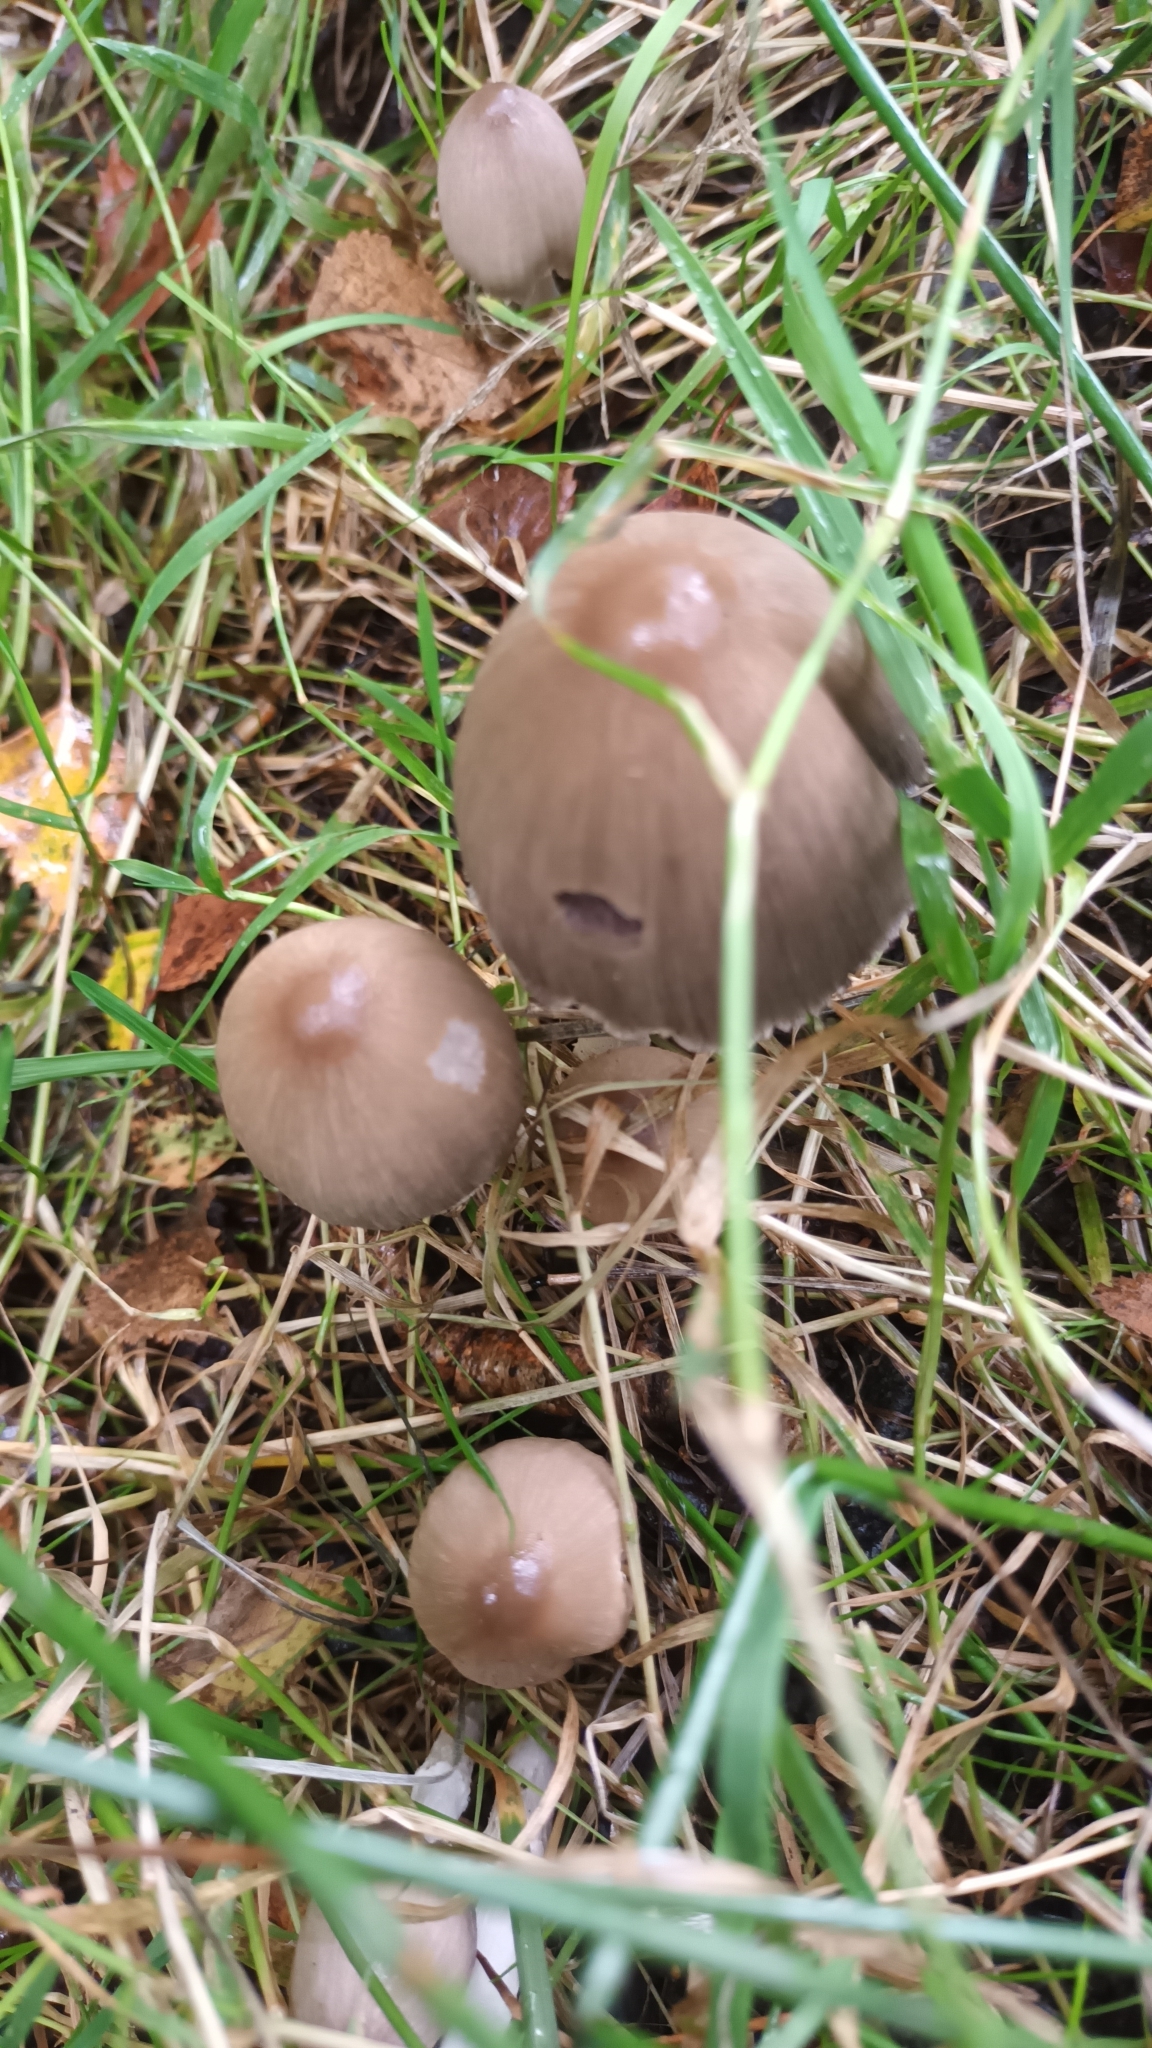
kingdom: Fungi
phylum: Basidiomycota
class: Agaricomycetes
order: Agaricales
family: Bolbitiaceae
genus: Panaeolus
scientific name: Panaeolus papilionaceus
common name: Petticoat mottlegill
